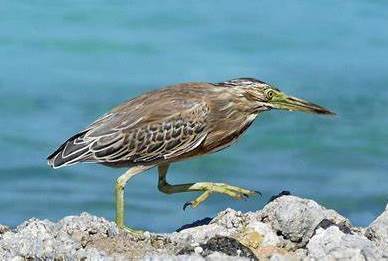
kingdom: Animalia
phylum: Chordata
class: Aves
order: Pelecaniformes
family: Ardeidae
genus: Butorides
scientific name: Butorides striata
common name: Striated heron
